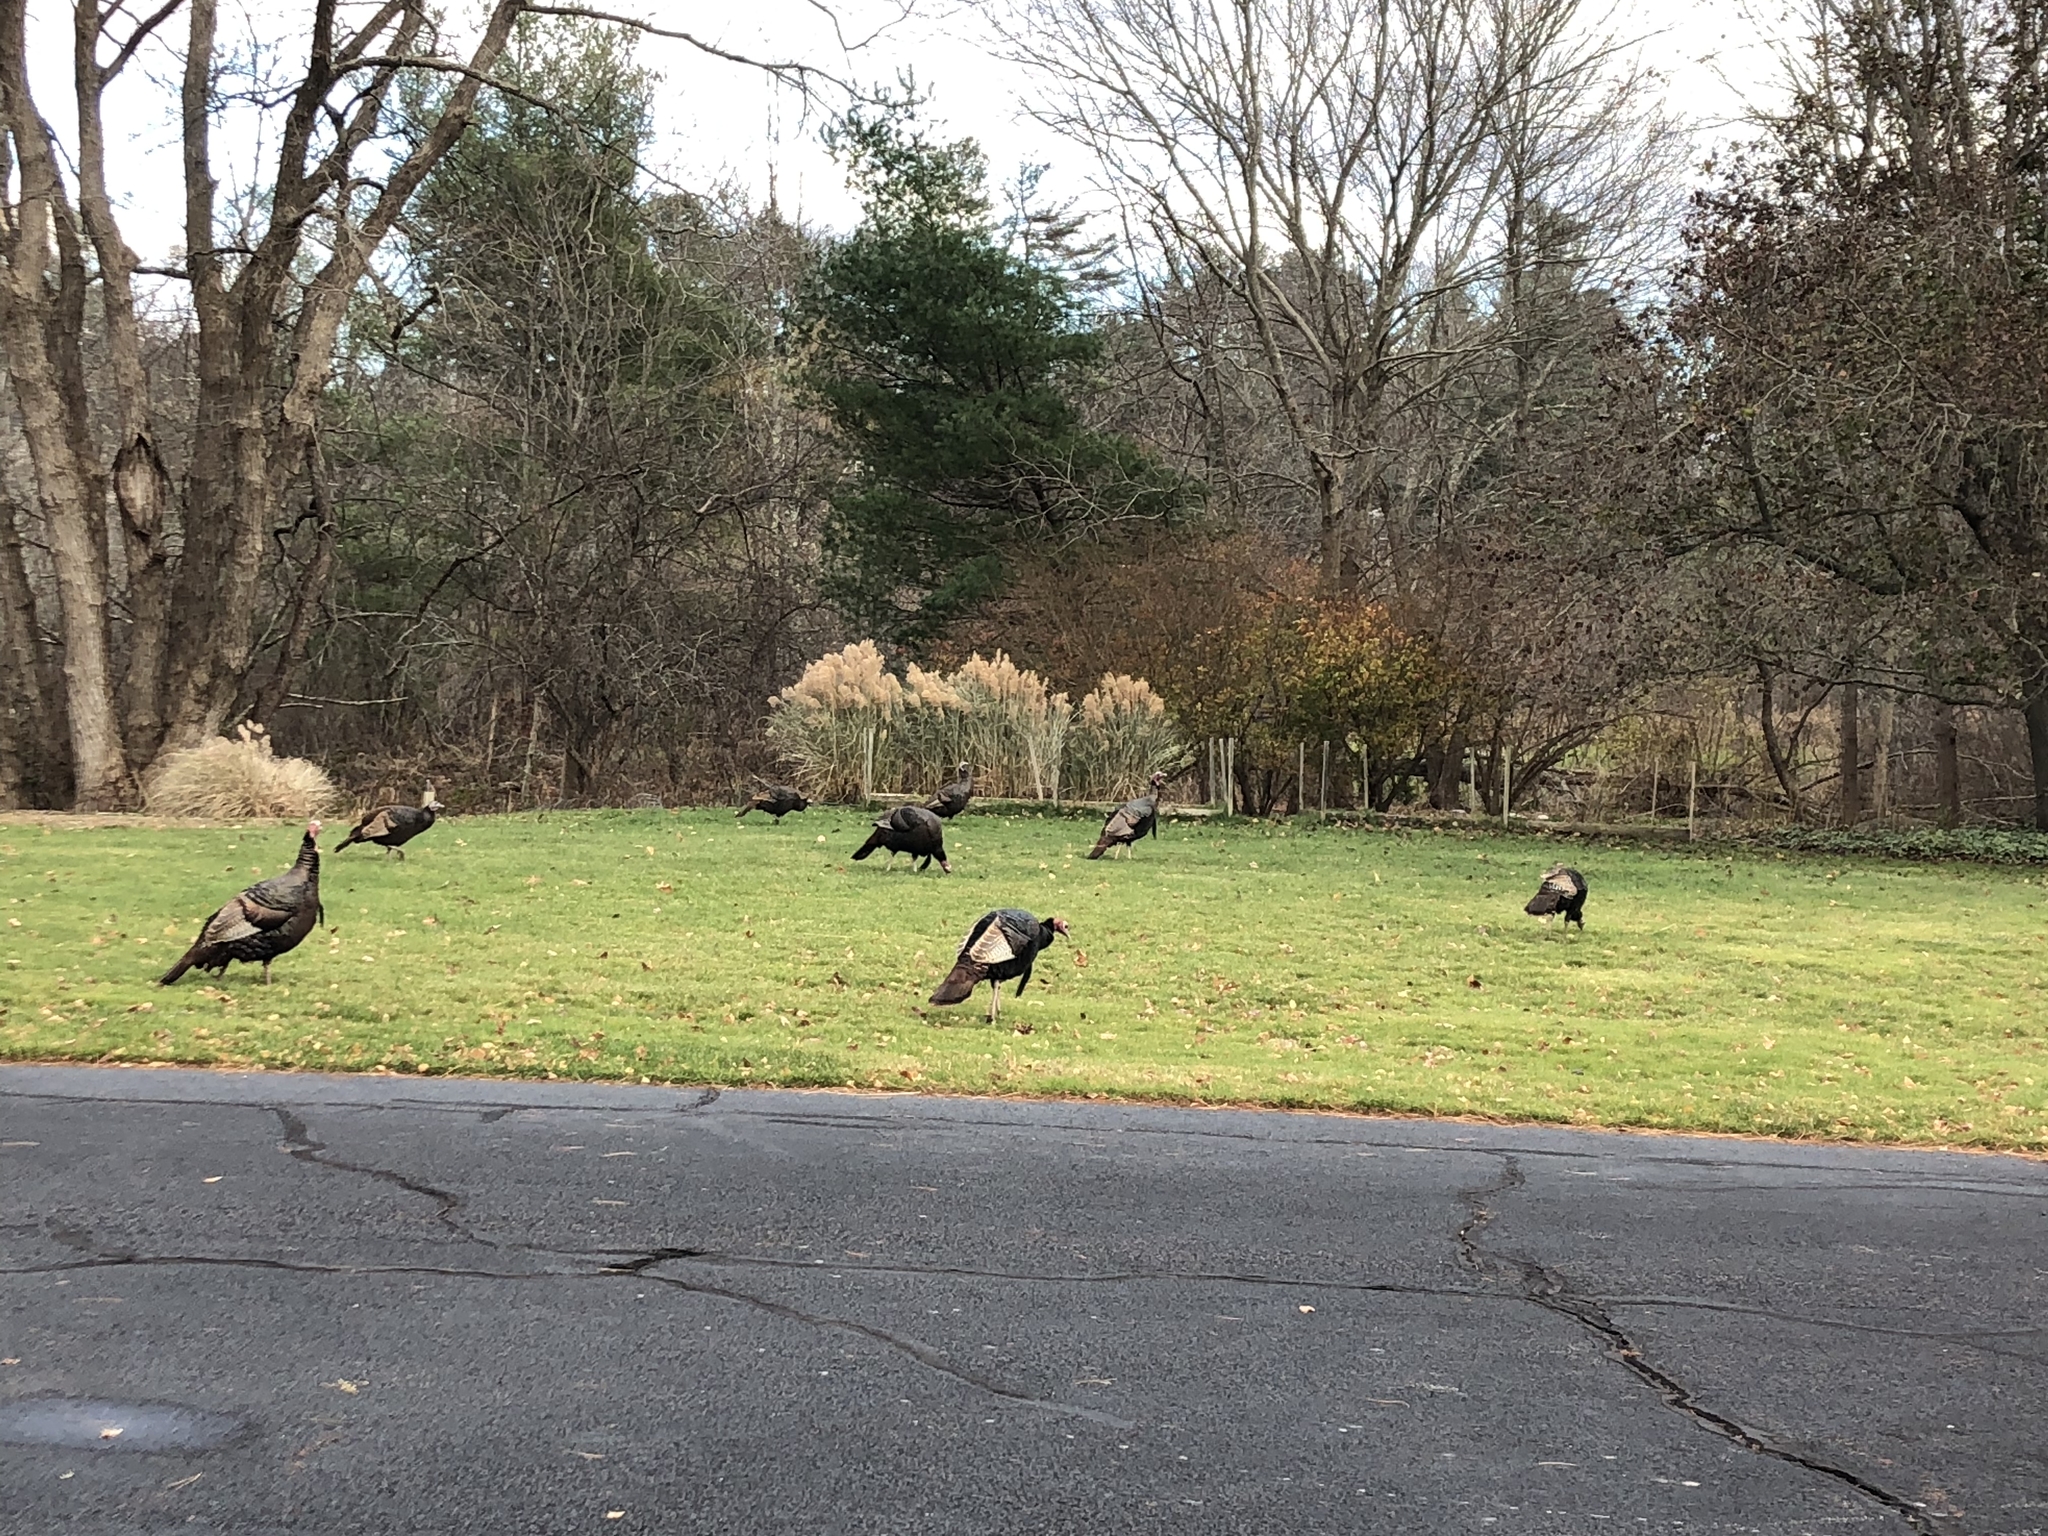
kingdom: Animalia
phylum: Chordata
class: Aves
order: Galliformes
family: Phasianidae
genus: Meleagris
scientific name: Meleagris gallopavo
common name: Wild turkey
